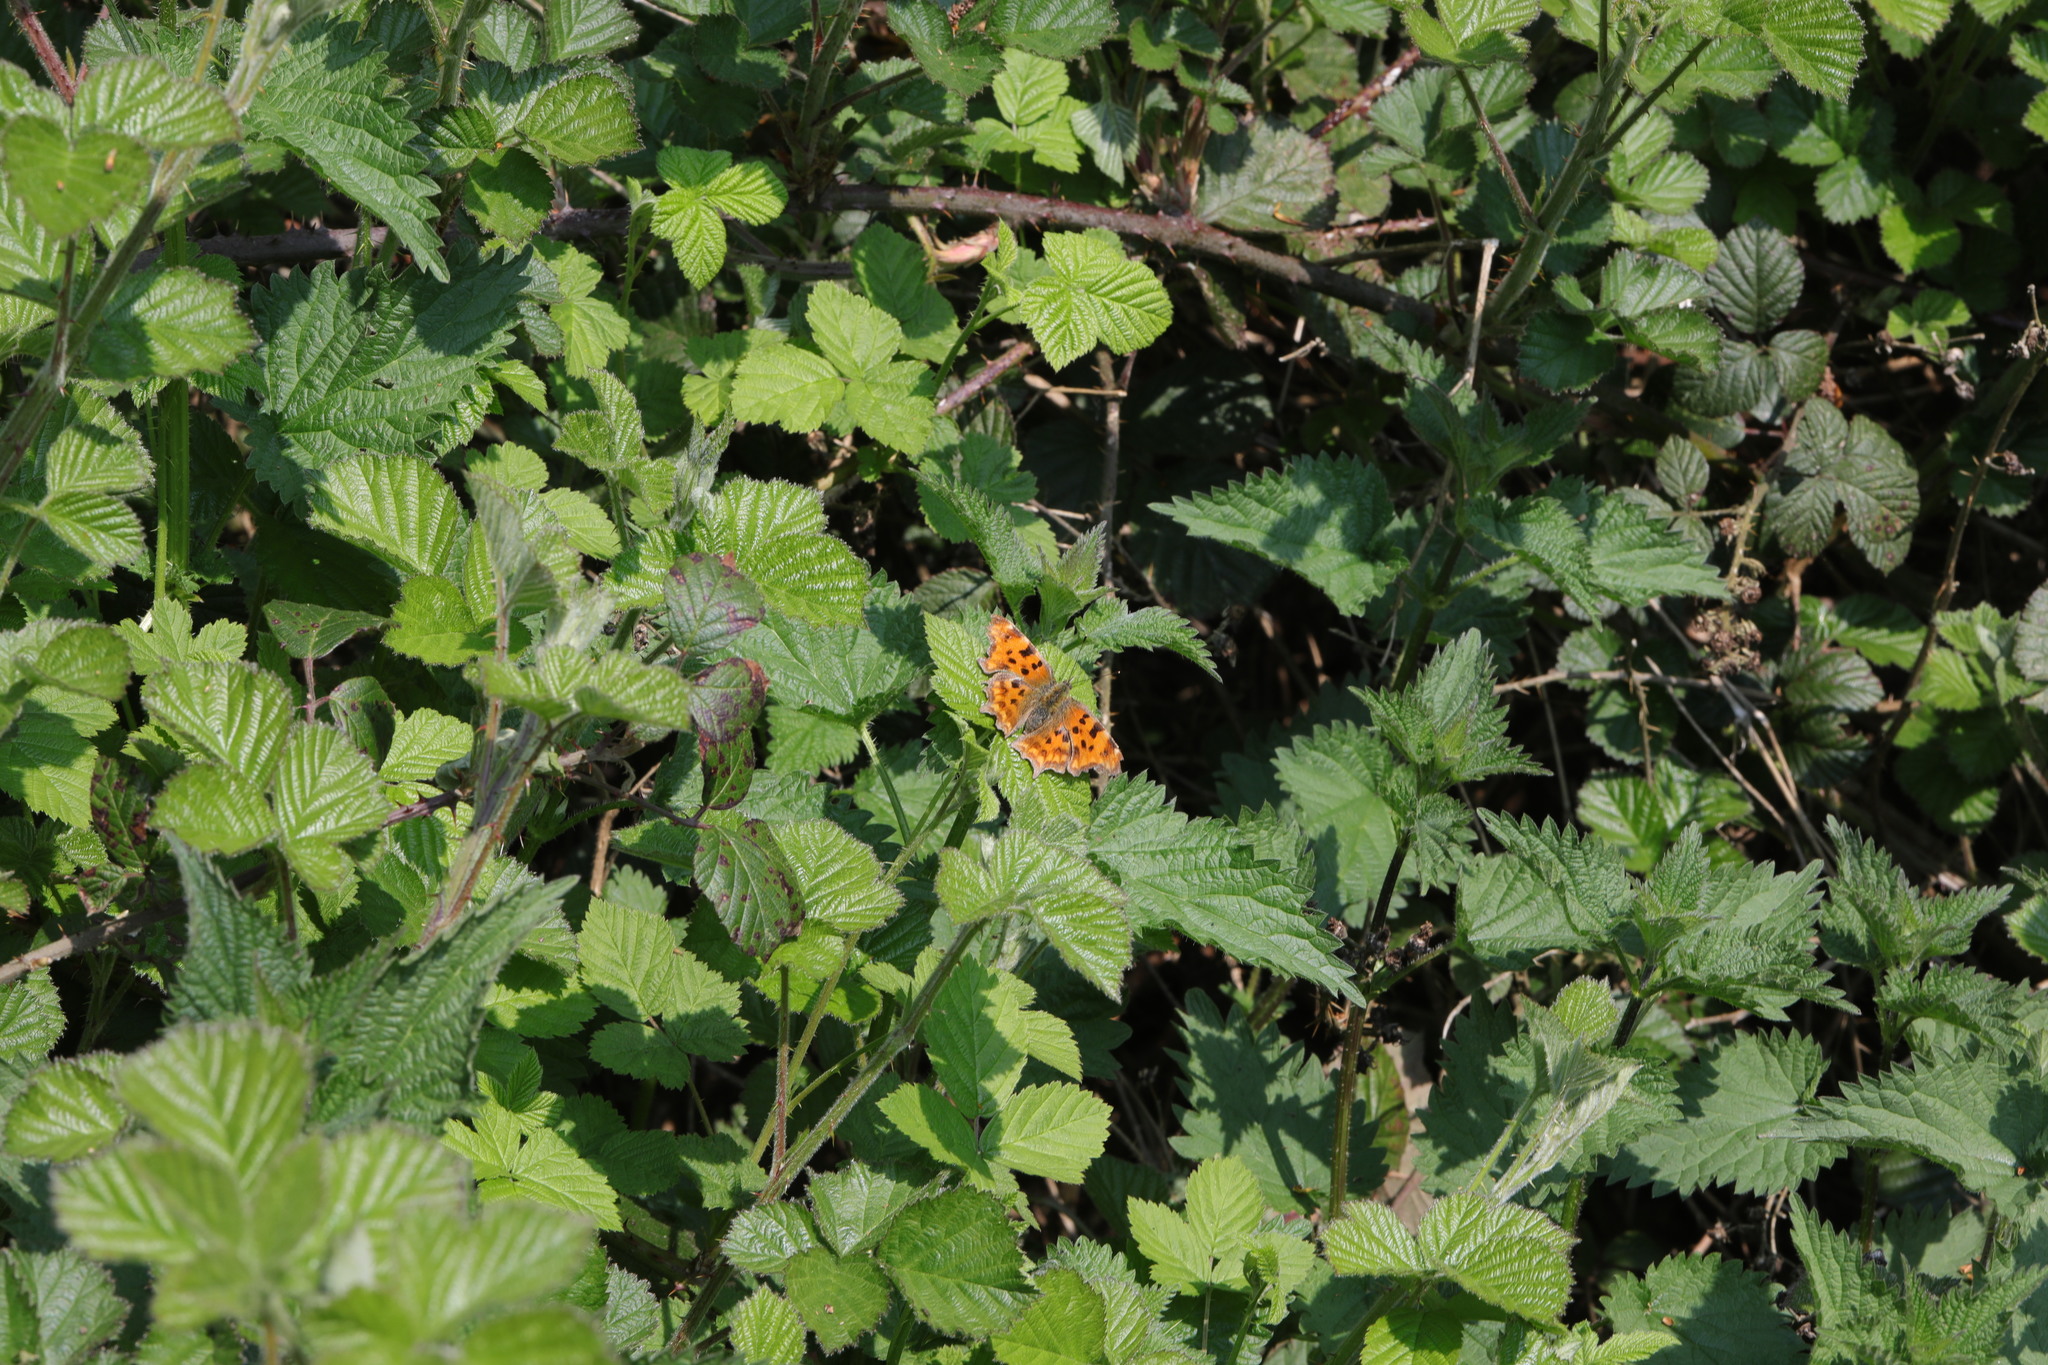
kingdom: Animalia
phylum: Arthropoda
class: Insecta
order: Lepidoptera
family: Nymphalidae
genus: Polygonia
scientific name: Polygonia c-album
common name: Comma
